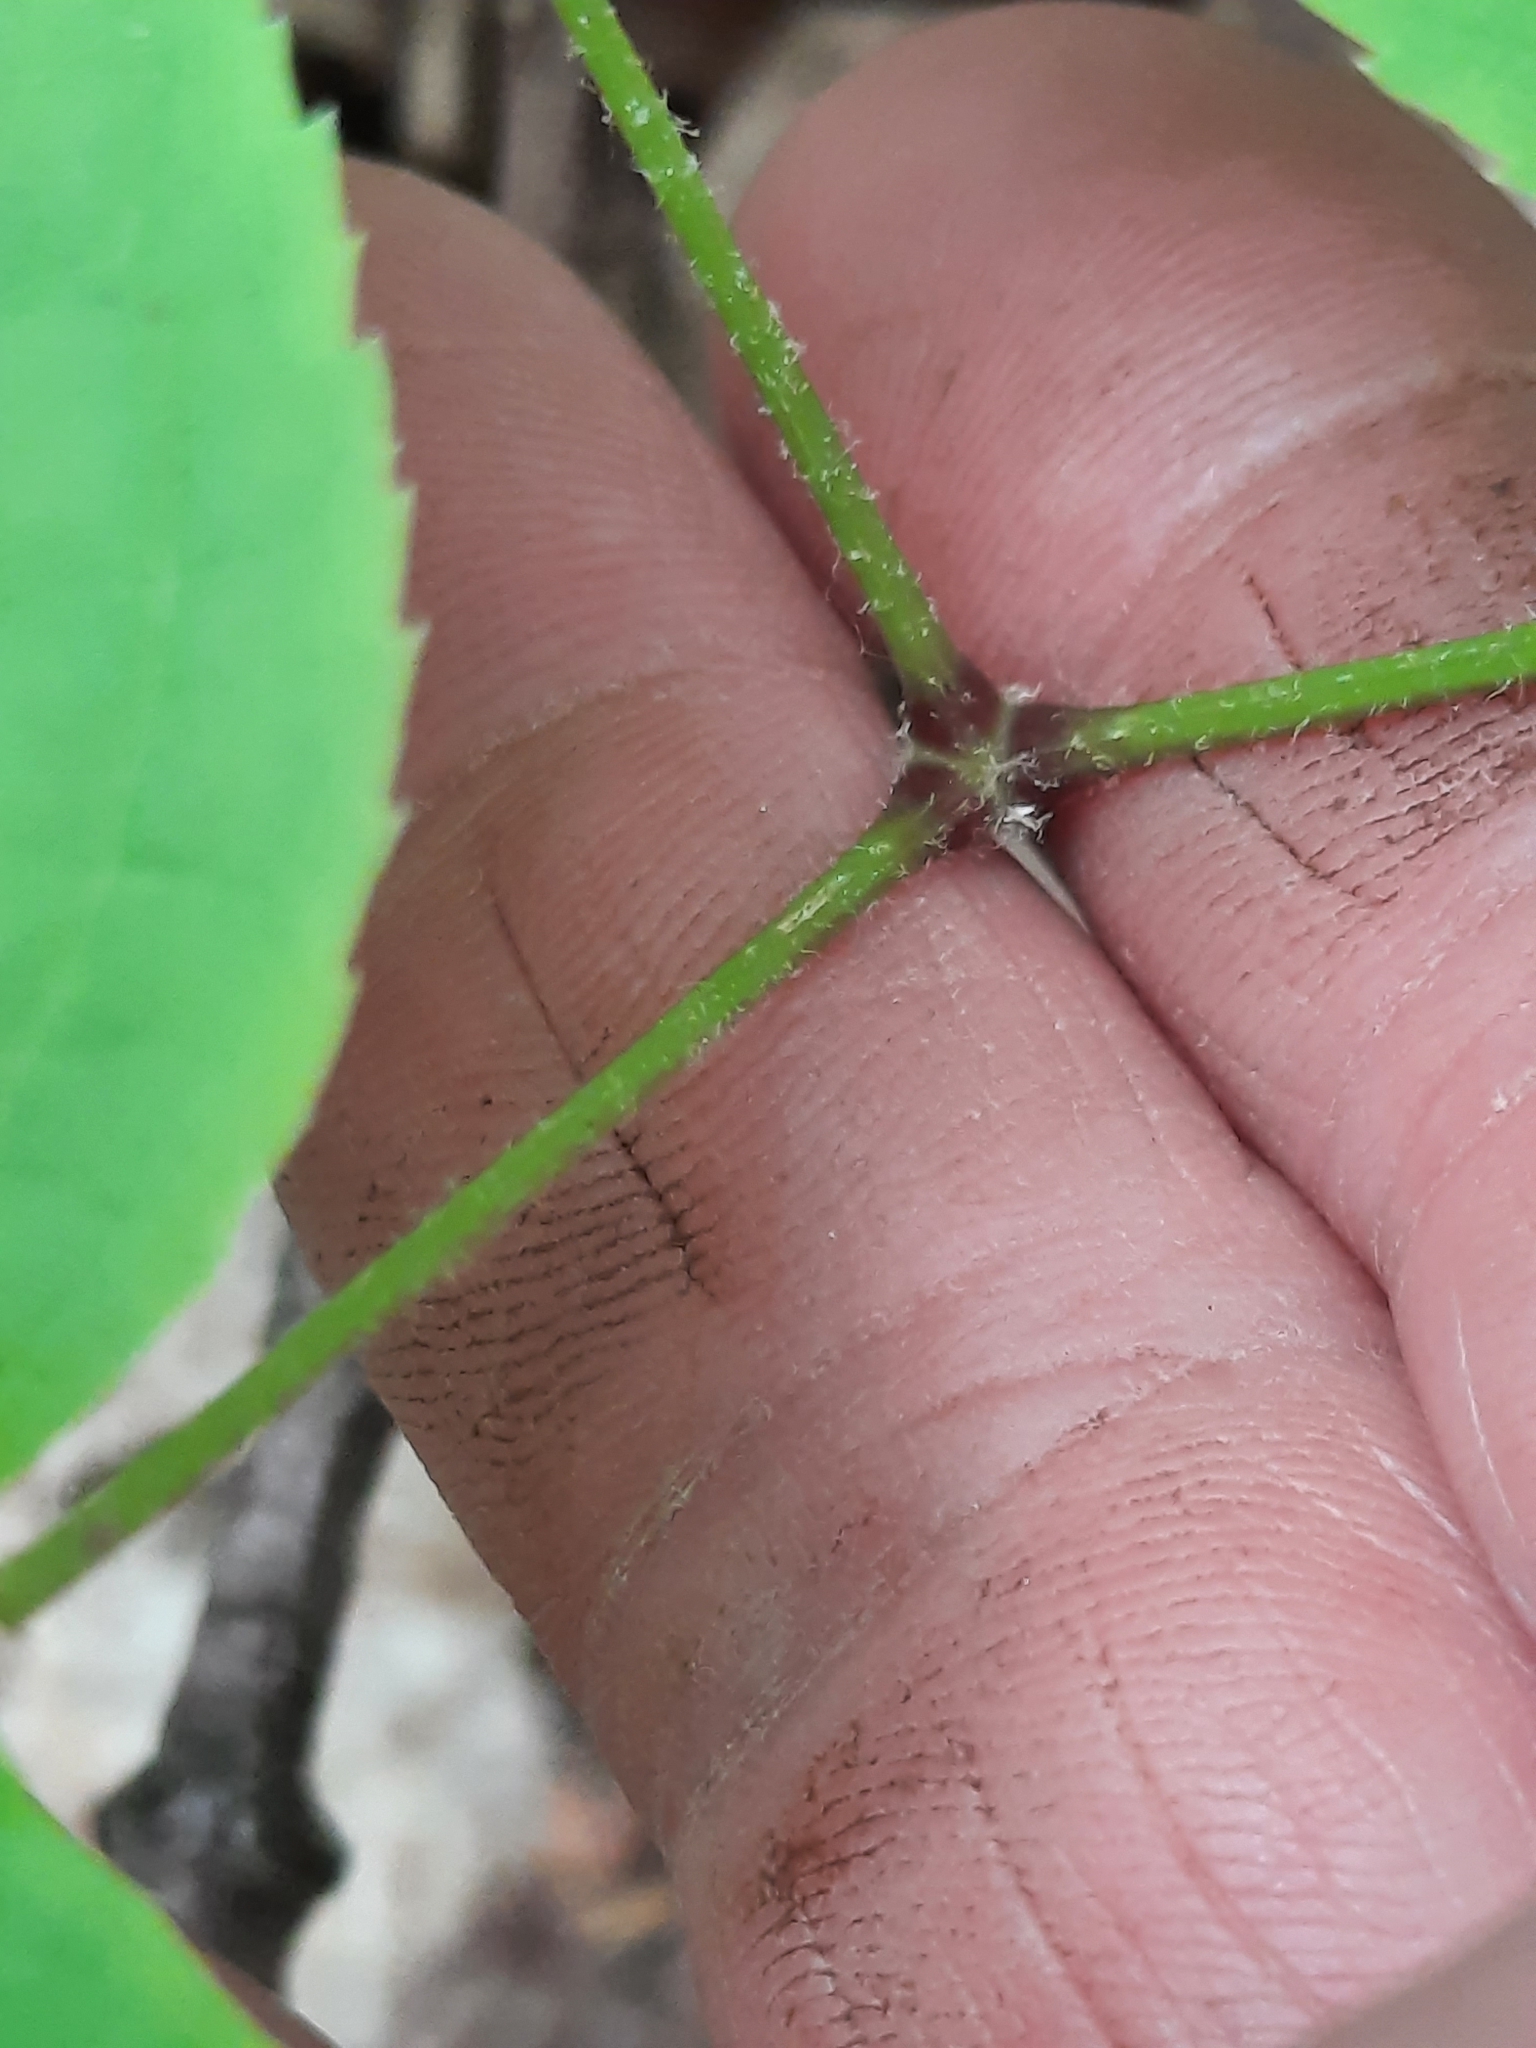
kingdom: Plantae
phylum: Tracheophyta
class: Magnoliopsida
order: Apiales
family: Araliaceae
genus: Aralia
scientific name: Aralia nudicaulis
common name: Wild sarsaparilla
